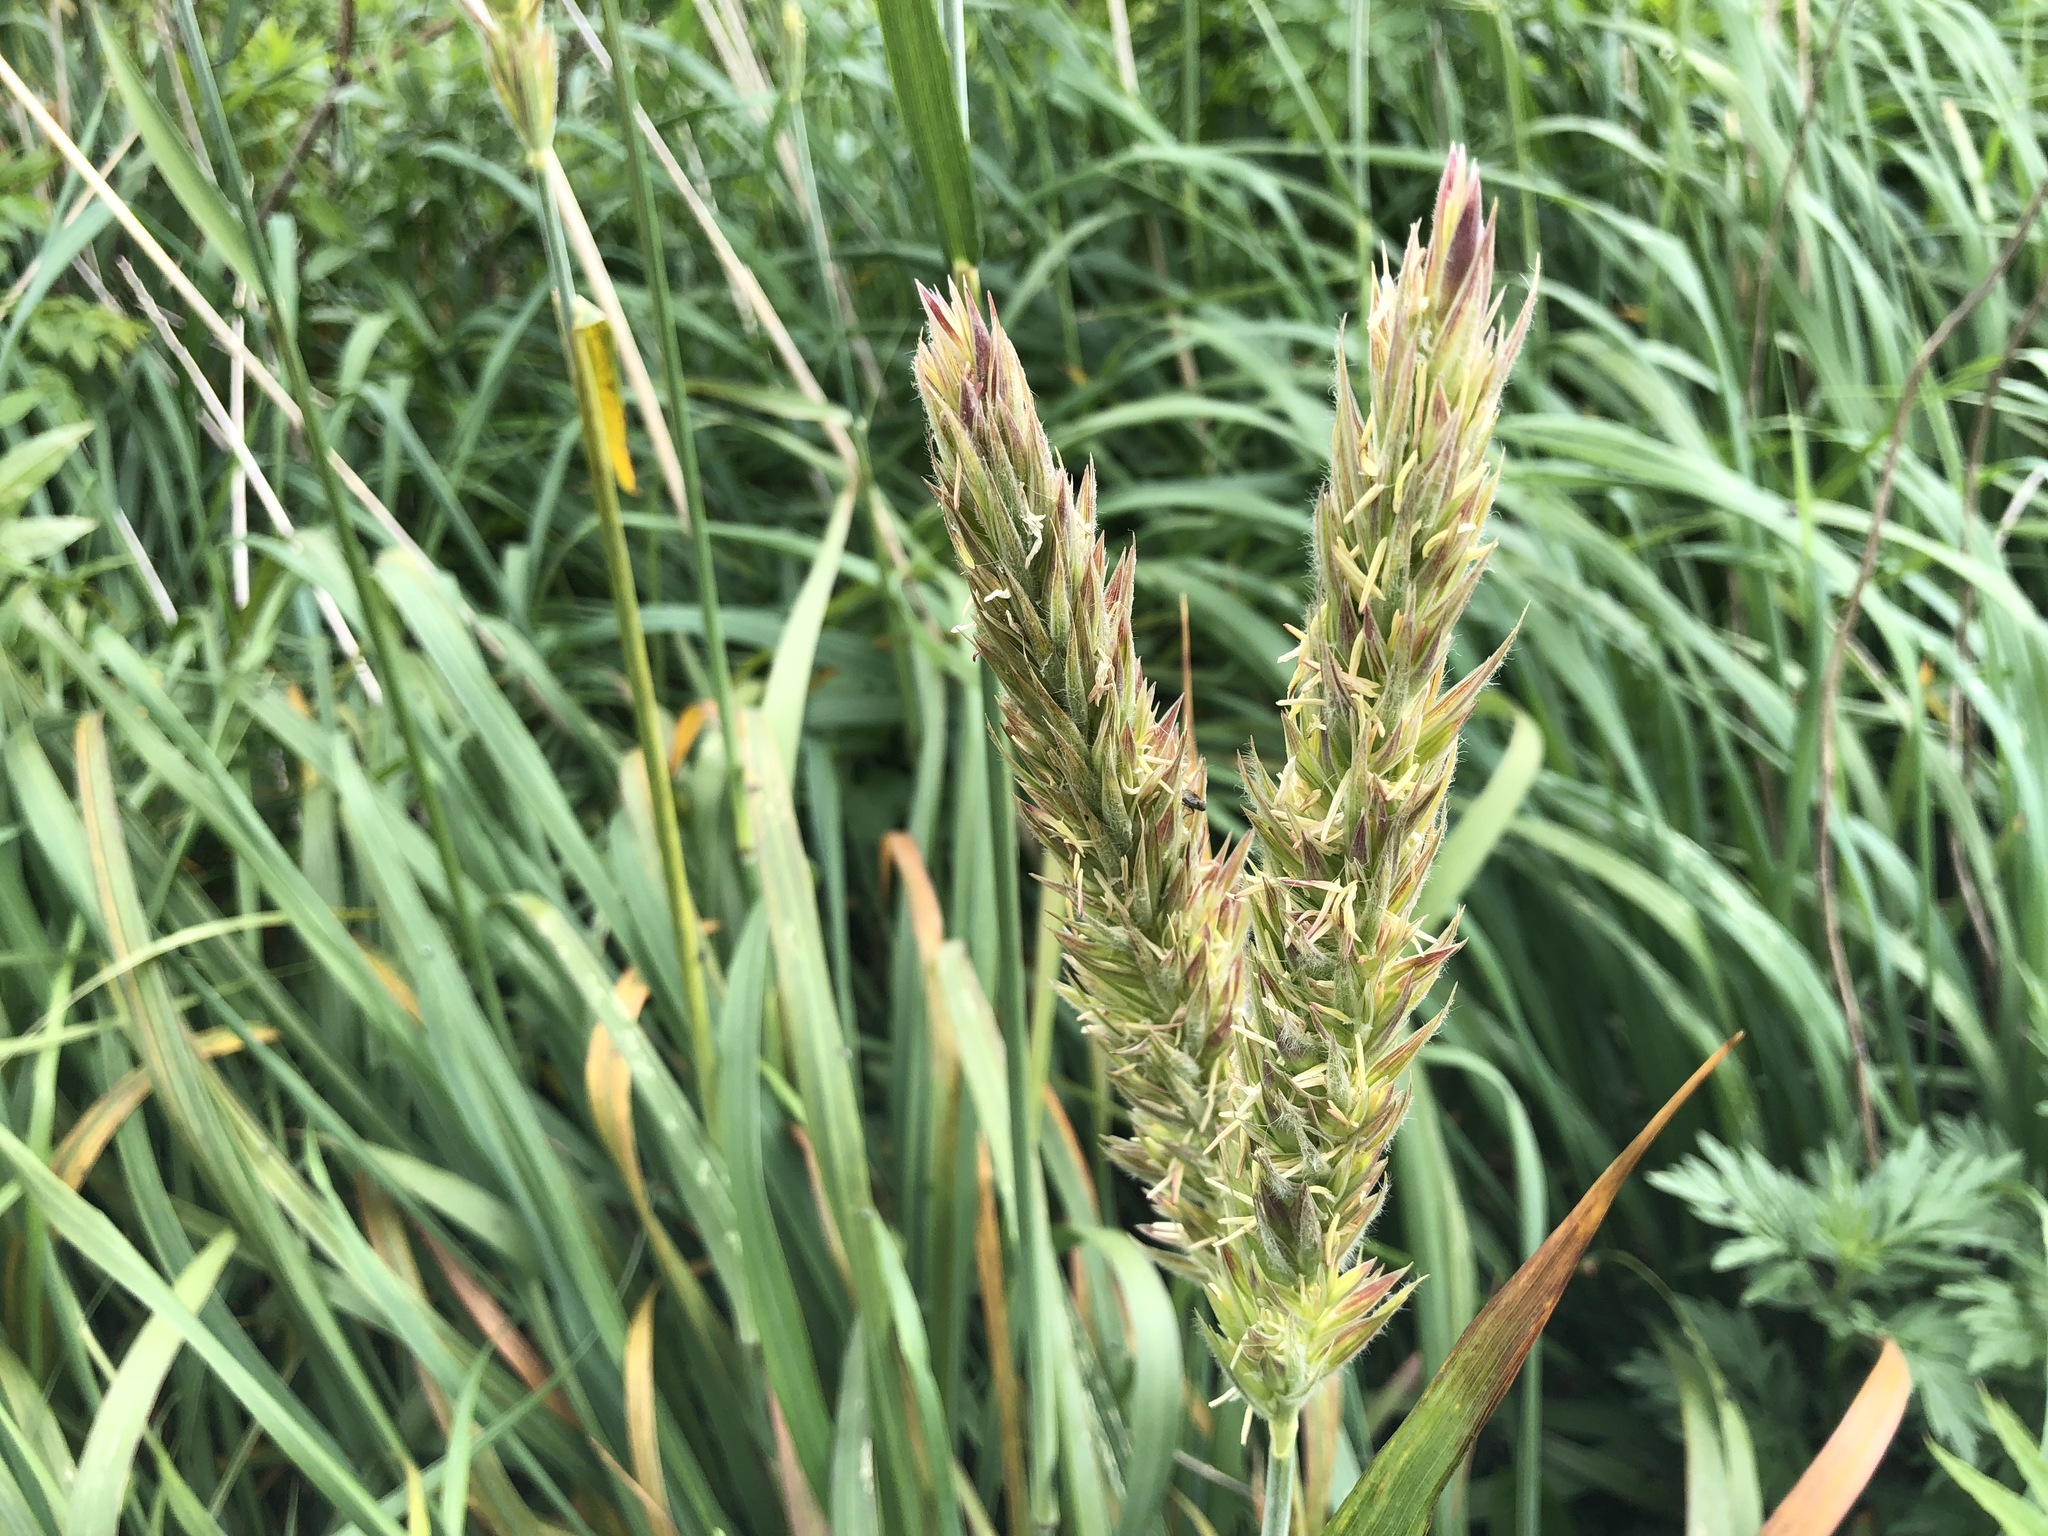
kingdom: Plantae
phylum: Tracheophyta
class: Liliopsida
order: Poales
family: Poaceae
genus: Leymus
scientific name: Leymus mollis
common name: American dune grass
